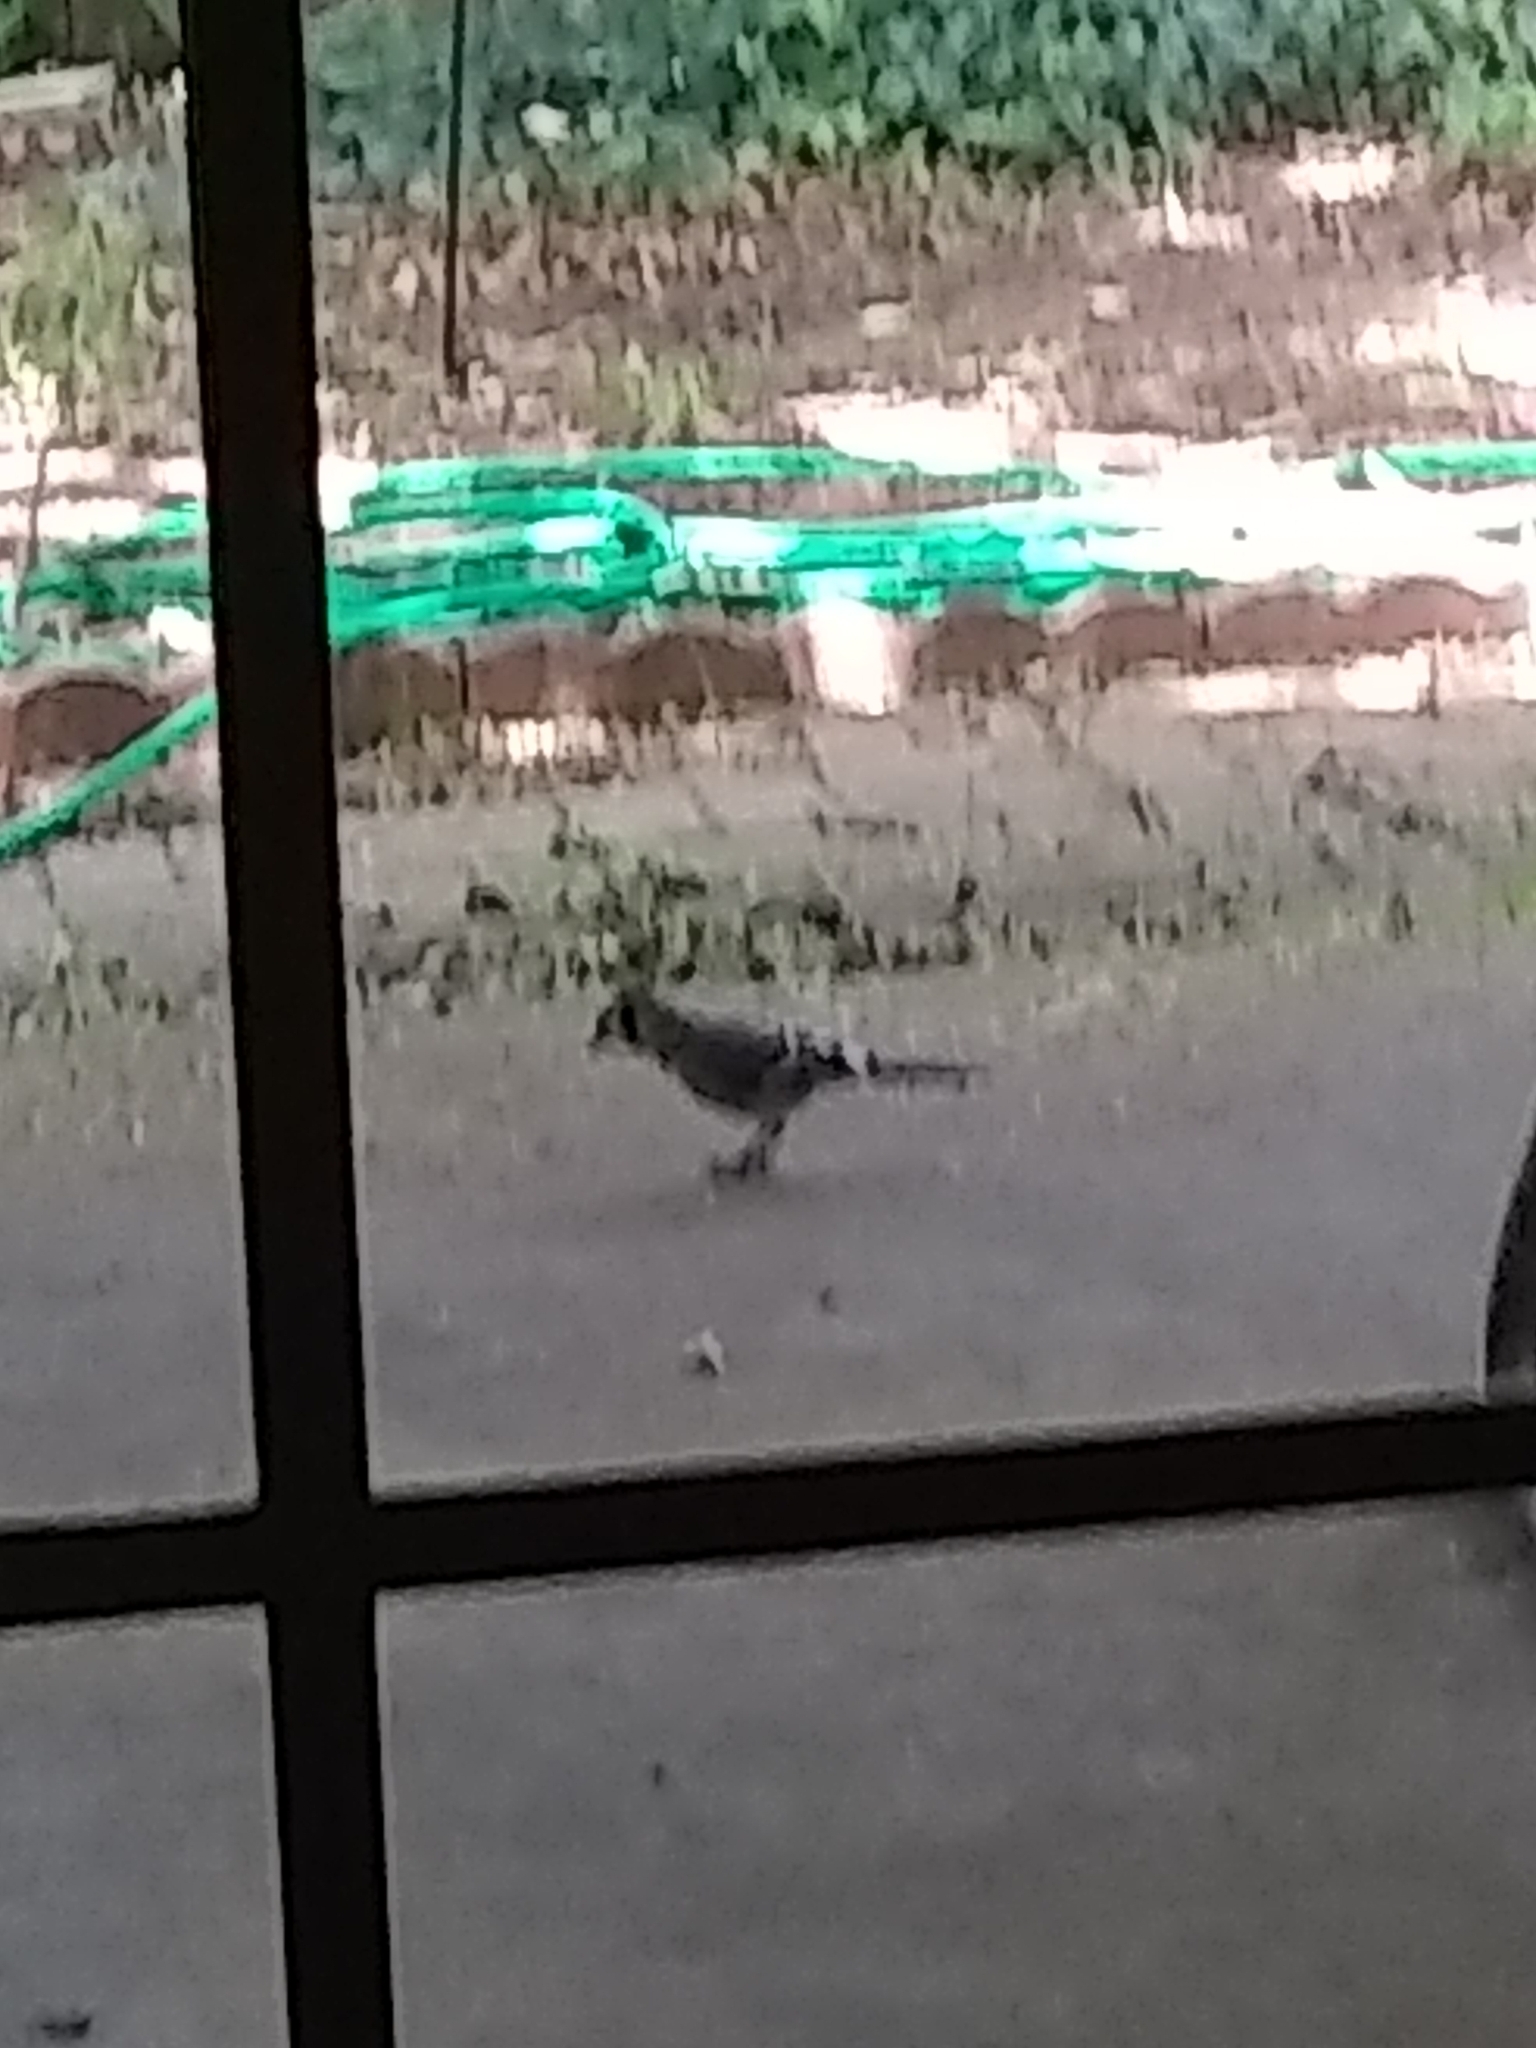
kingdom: Animalia
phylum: Chordata
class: Aves
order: Passeriformes
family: Corvidae
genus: Cyanocitta
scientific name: Cyanocitta cristata
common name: Blue jay
